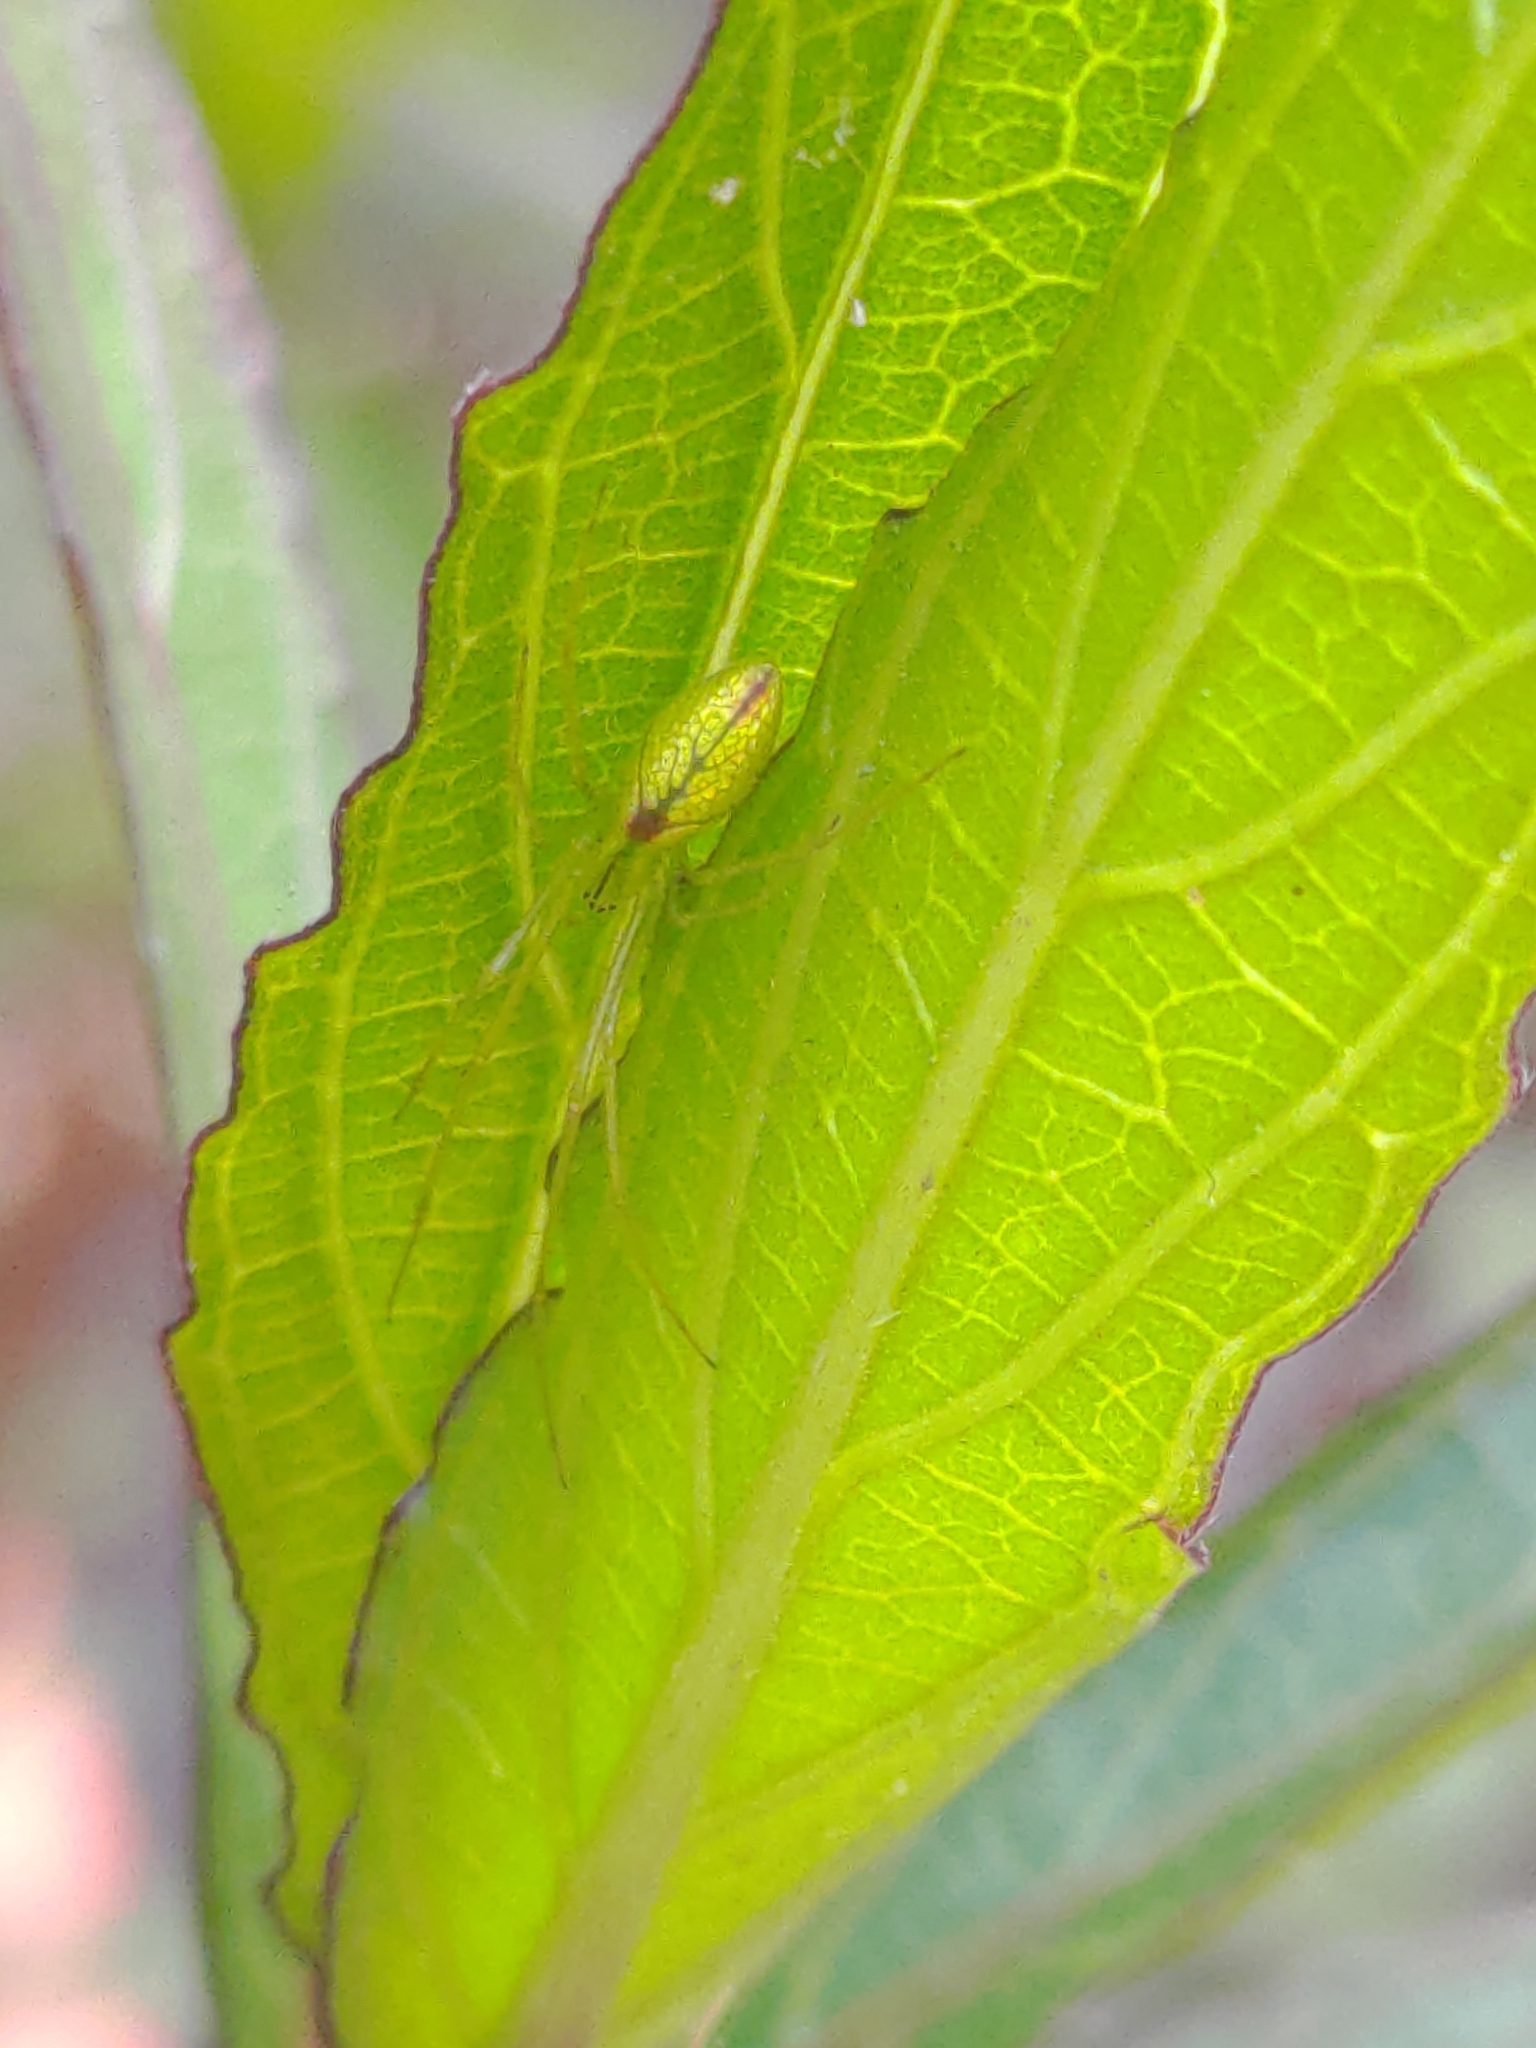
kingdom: Animalia
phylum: Arthropoda
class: Arachnida
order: Araneae
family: Tetragnathidae
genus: Tetragnatha
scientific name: Tetragnatha squamata
